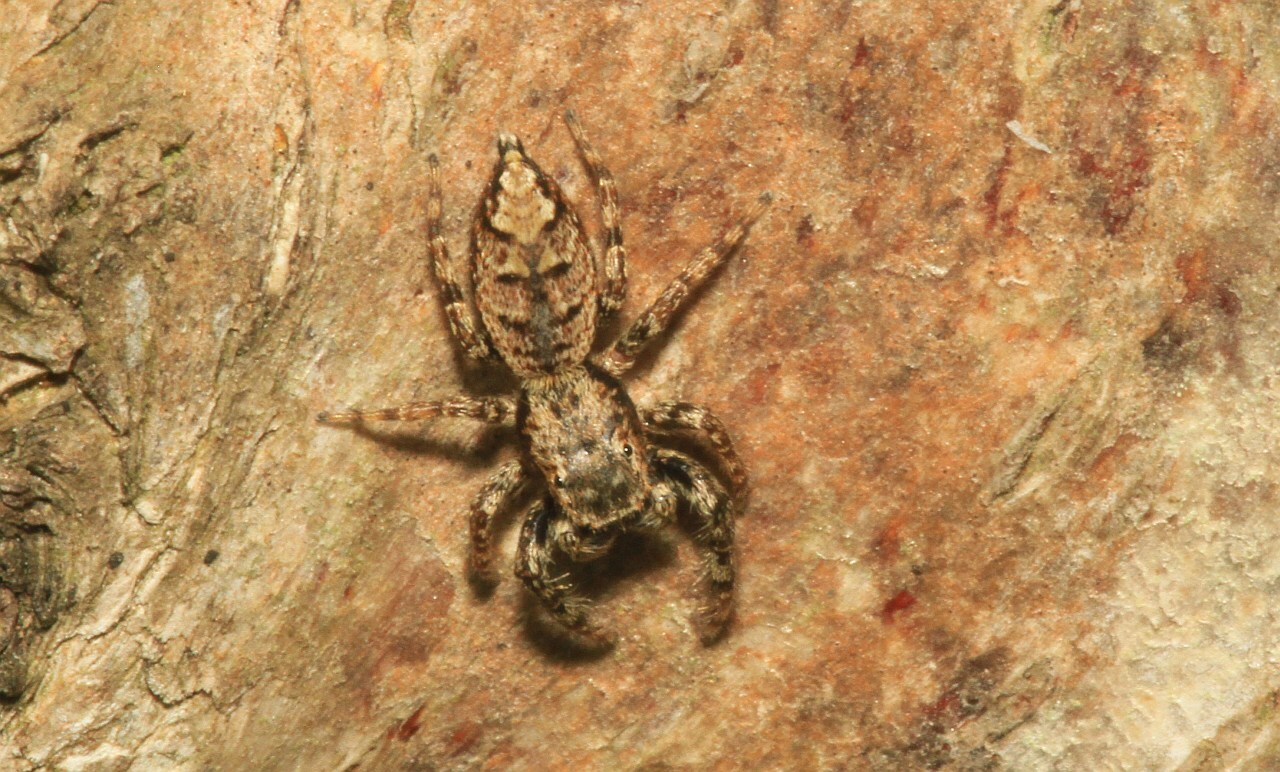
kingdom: Animalia
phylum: Arthropoda
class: Arachnida
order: Araneae
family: Salticidae
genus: Marpissa
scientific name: Marpissa muscosa
